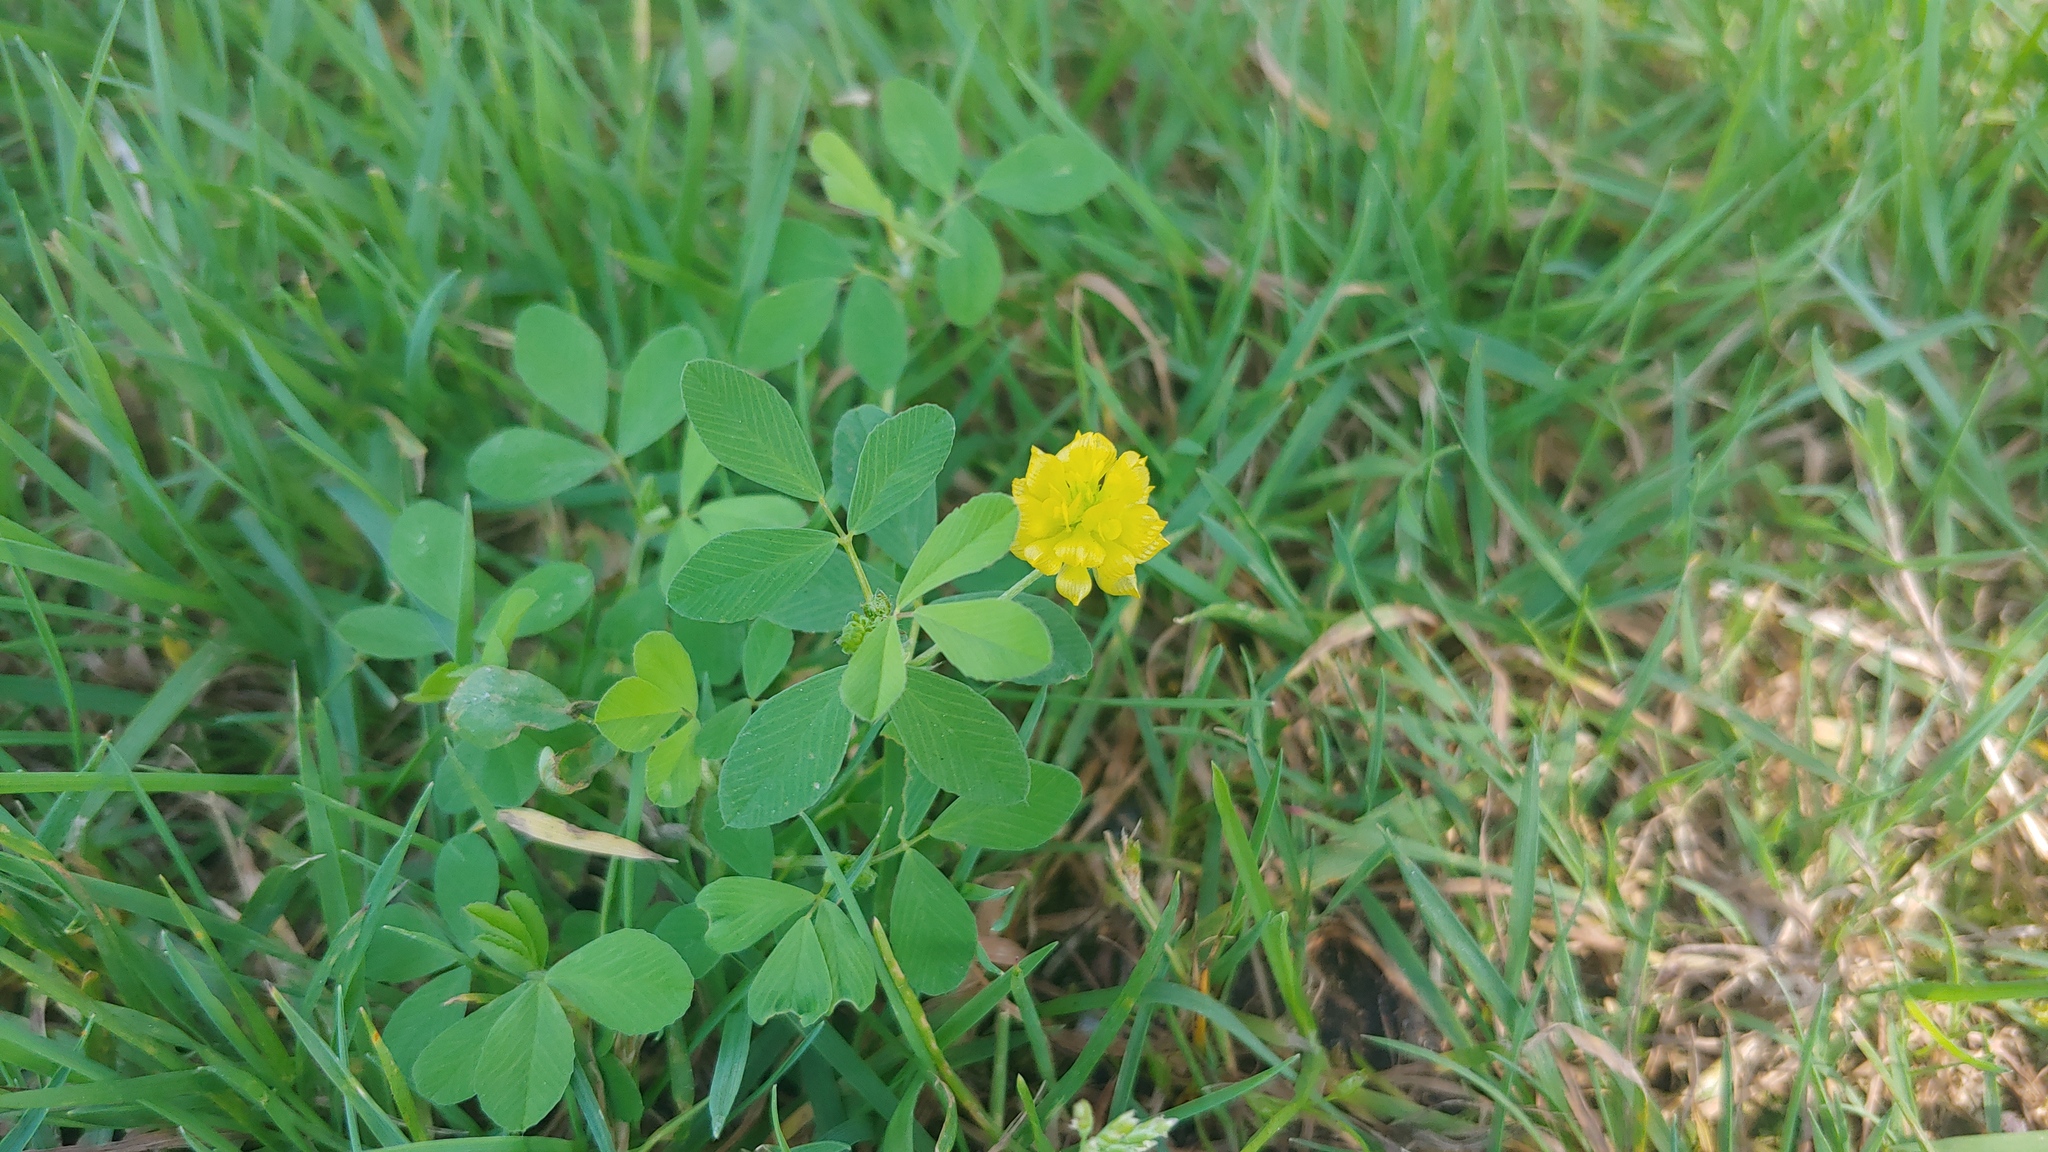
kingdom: Plantae
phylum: Tracheophyta
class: Magnoliopsida
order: Fabales
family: Fabaceae
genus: Trifolium
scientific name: Trifolium campestre
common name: Field clover
